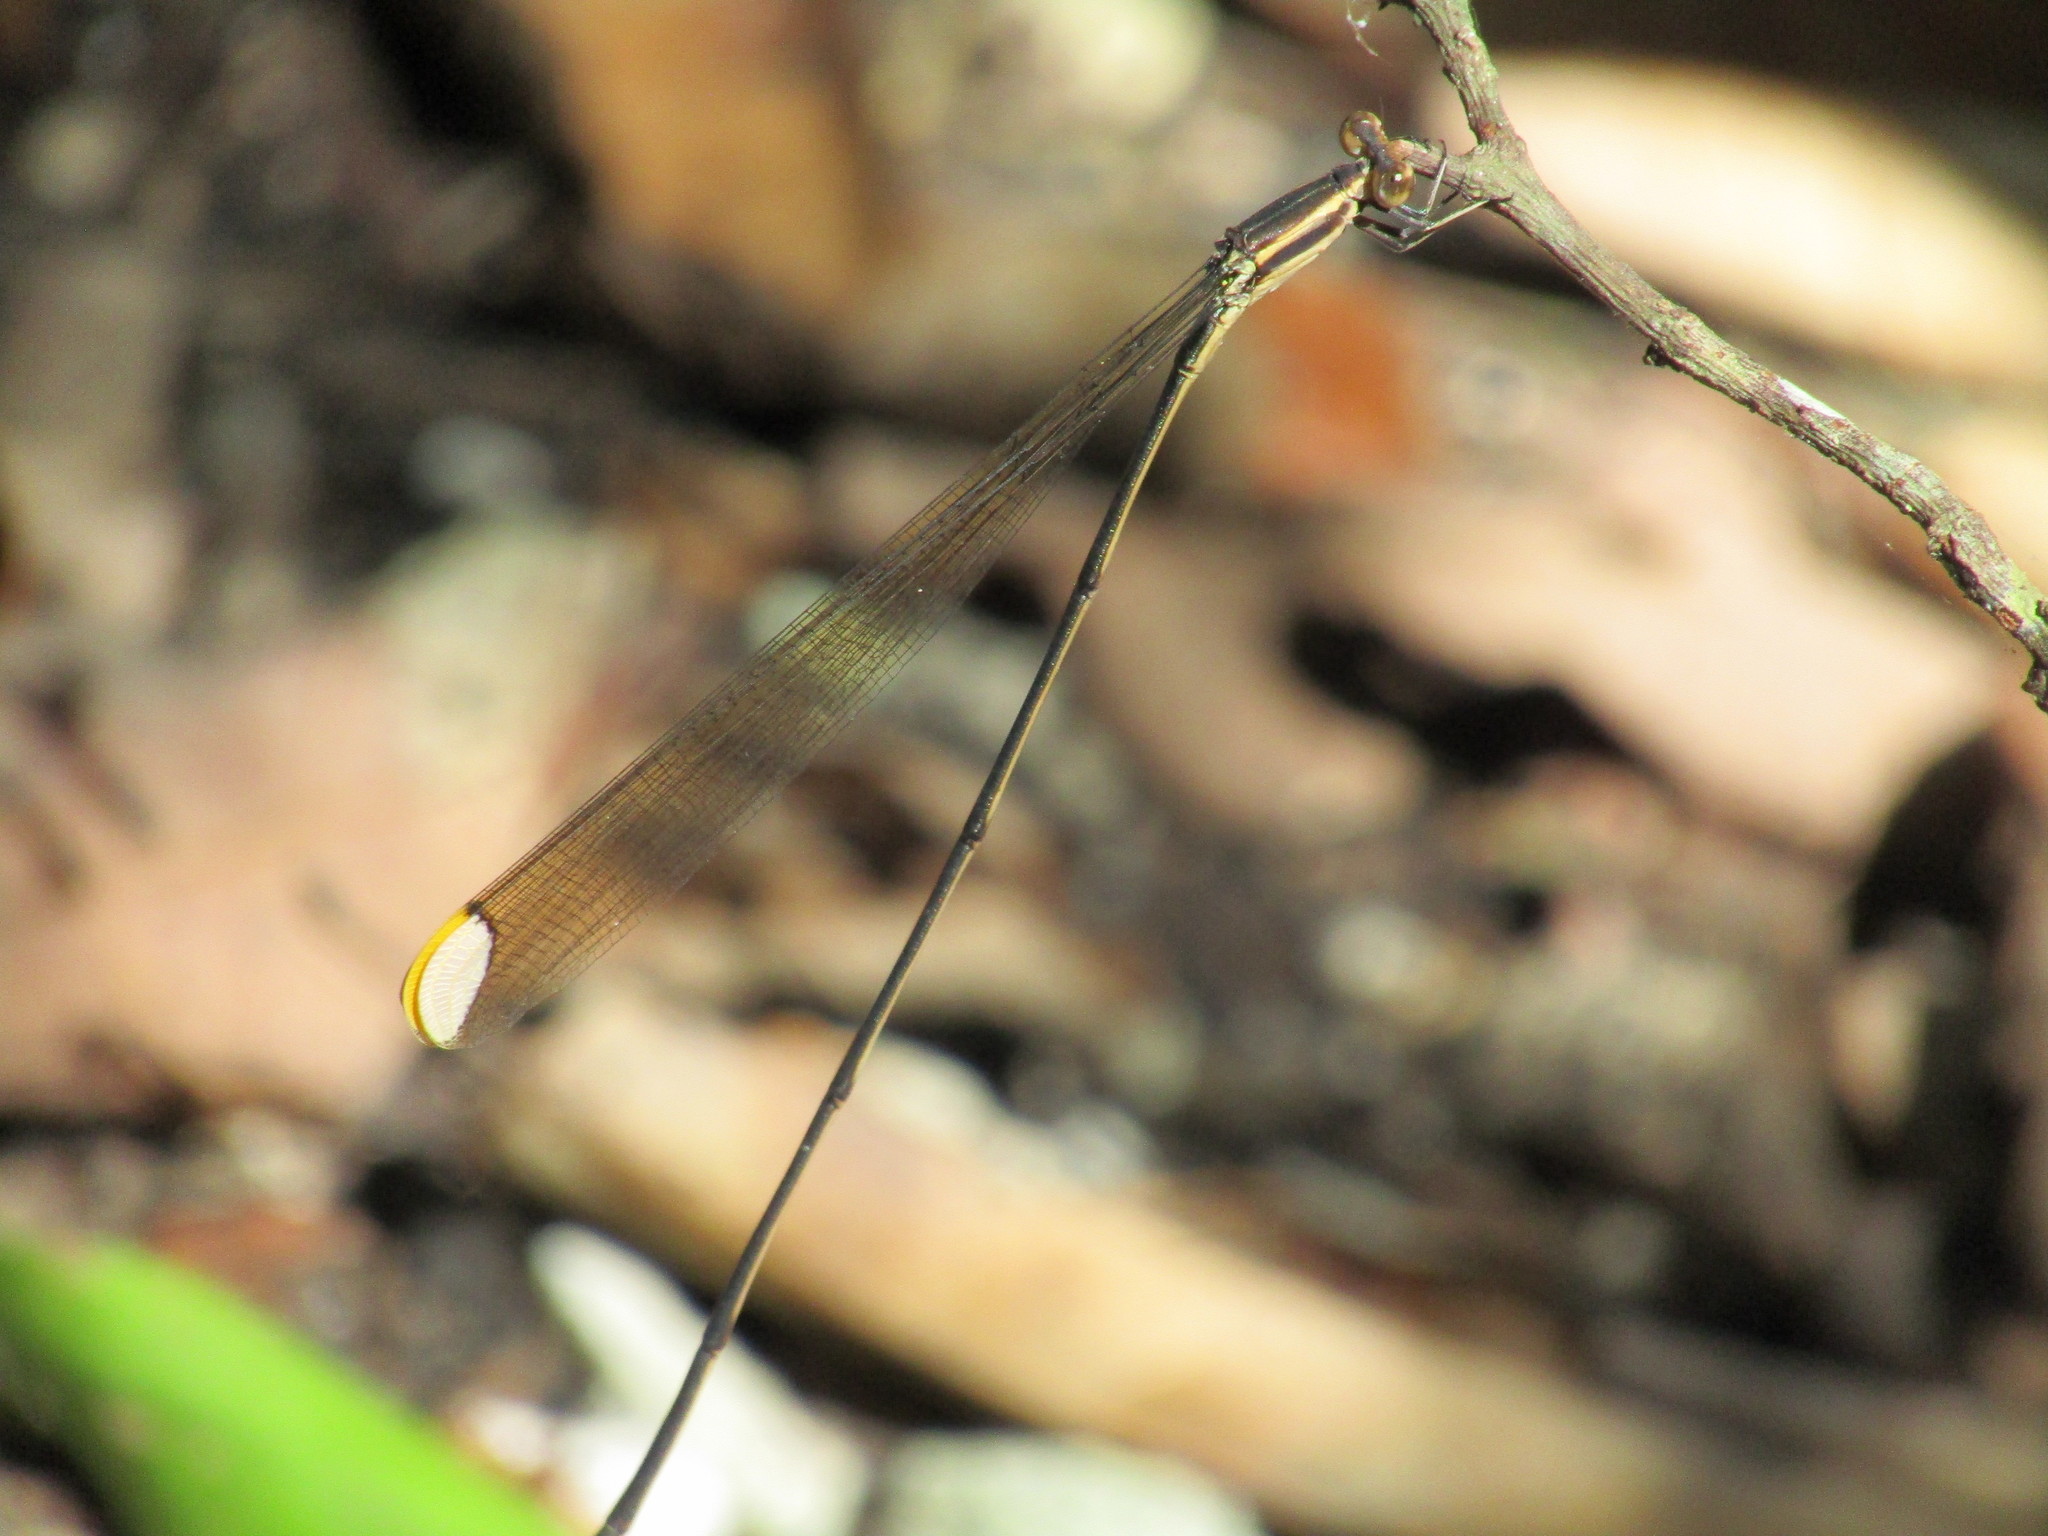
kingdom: Animalia
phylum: Arthropoda
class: Insecta
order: Odonata
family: Coenagrionidae
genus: Mecistogaster
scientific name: Mecistogaster ornata
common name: Ornate helicopter
